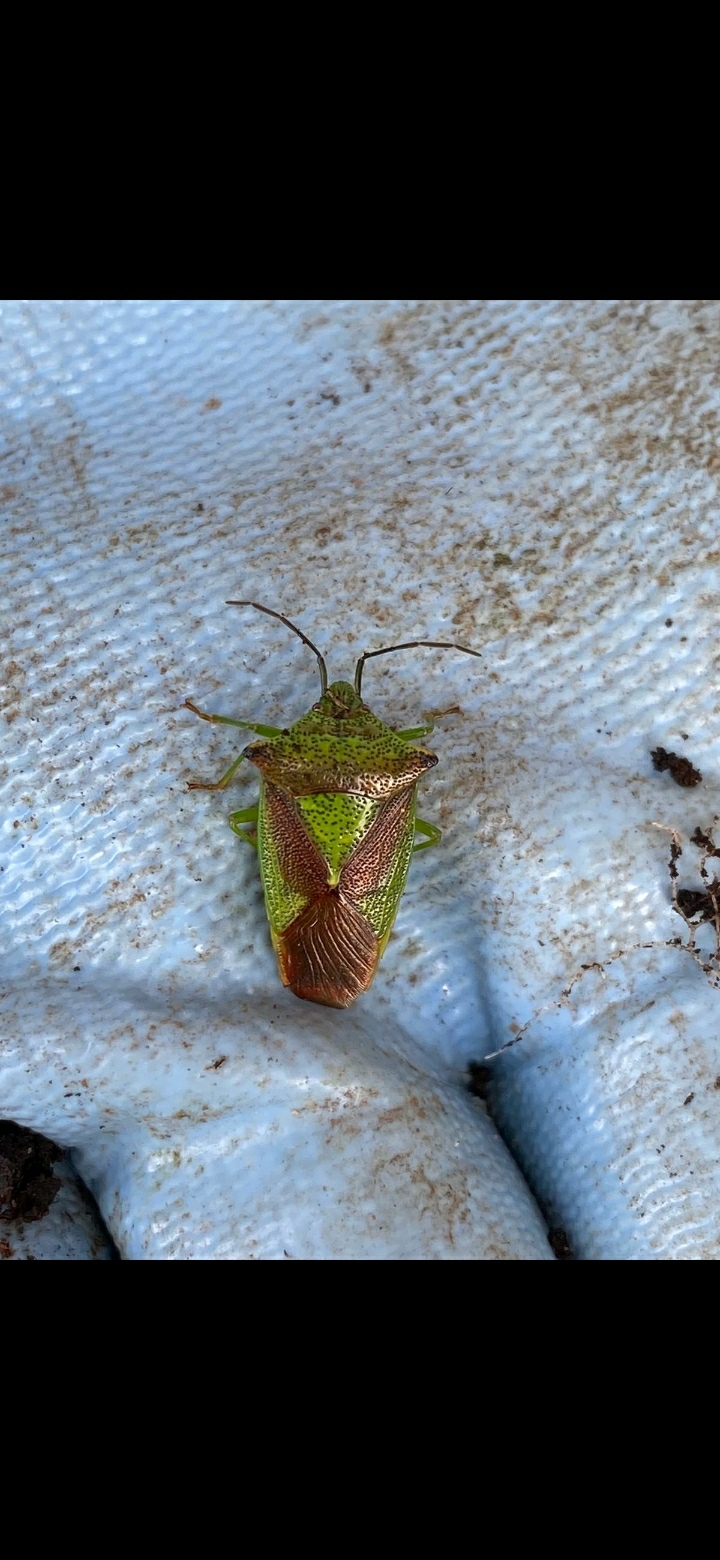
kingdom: Animalia
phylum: Arthropoda
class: Insecta
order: Hemiptera
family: Acanthosomatidae
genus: Acanthosoma
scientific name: Acanthosoma haemorrhoidale
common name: Hawthorn shieldbug
